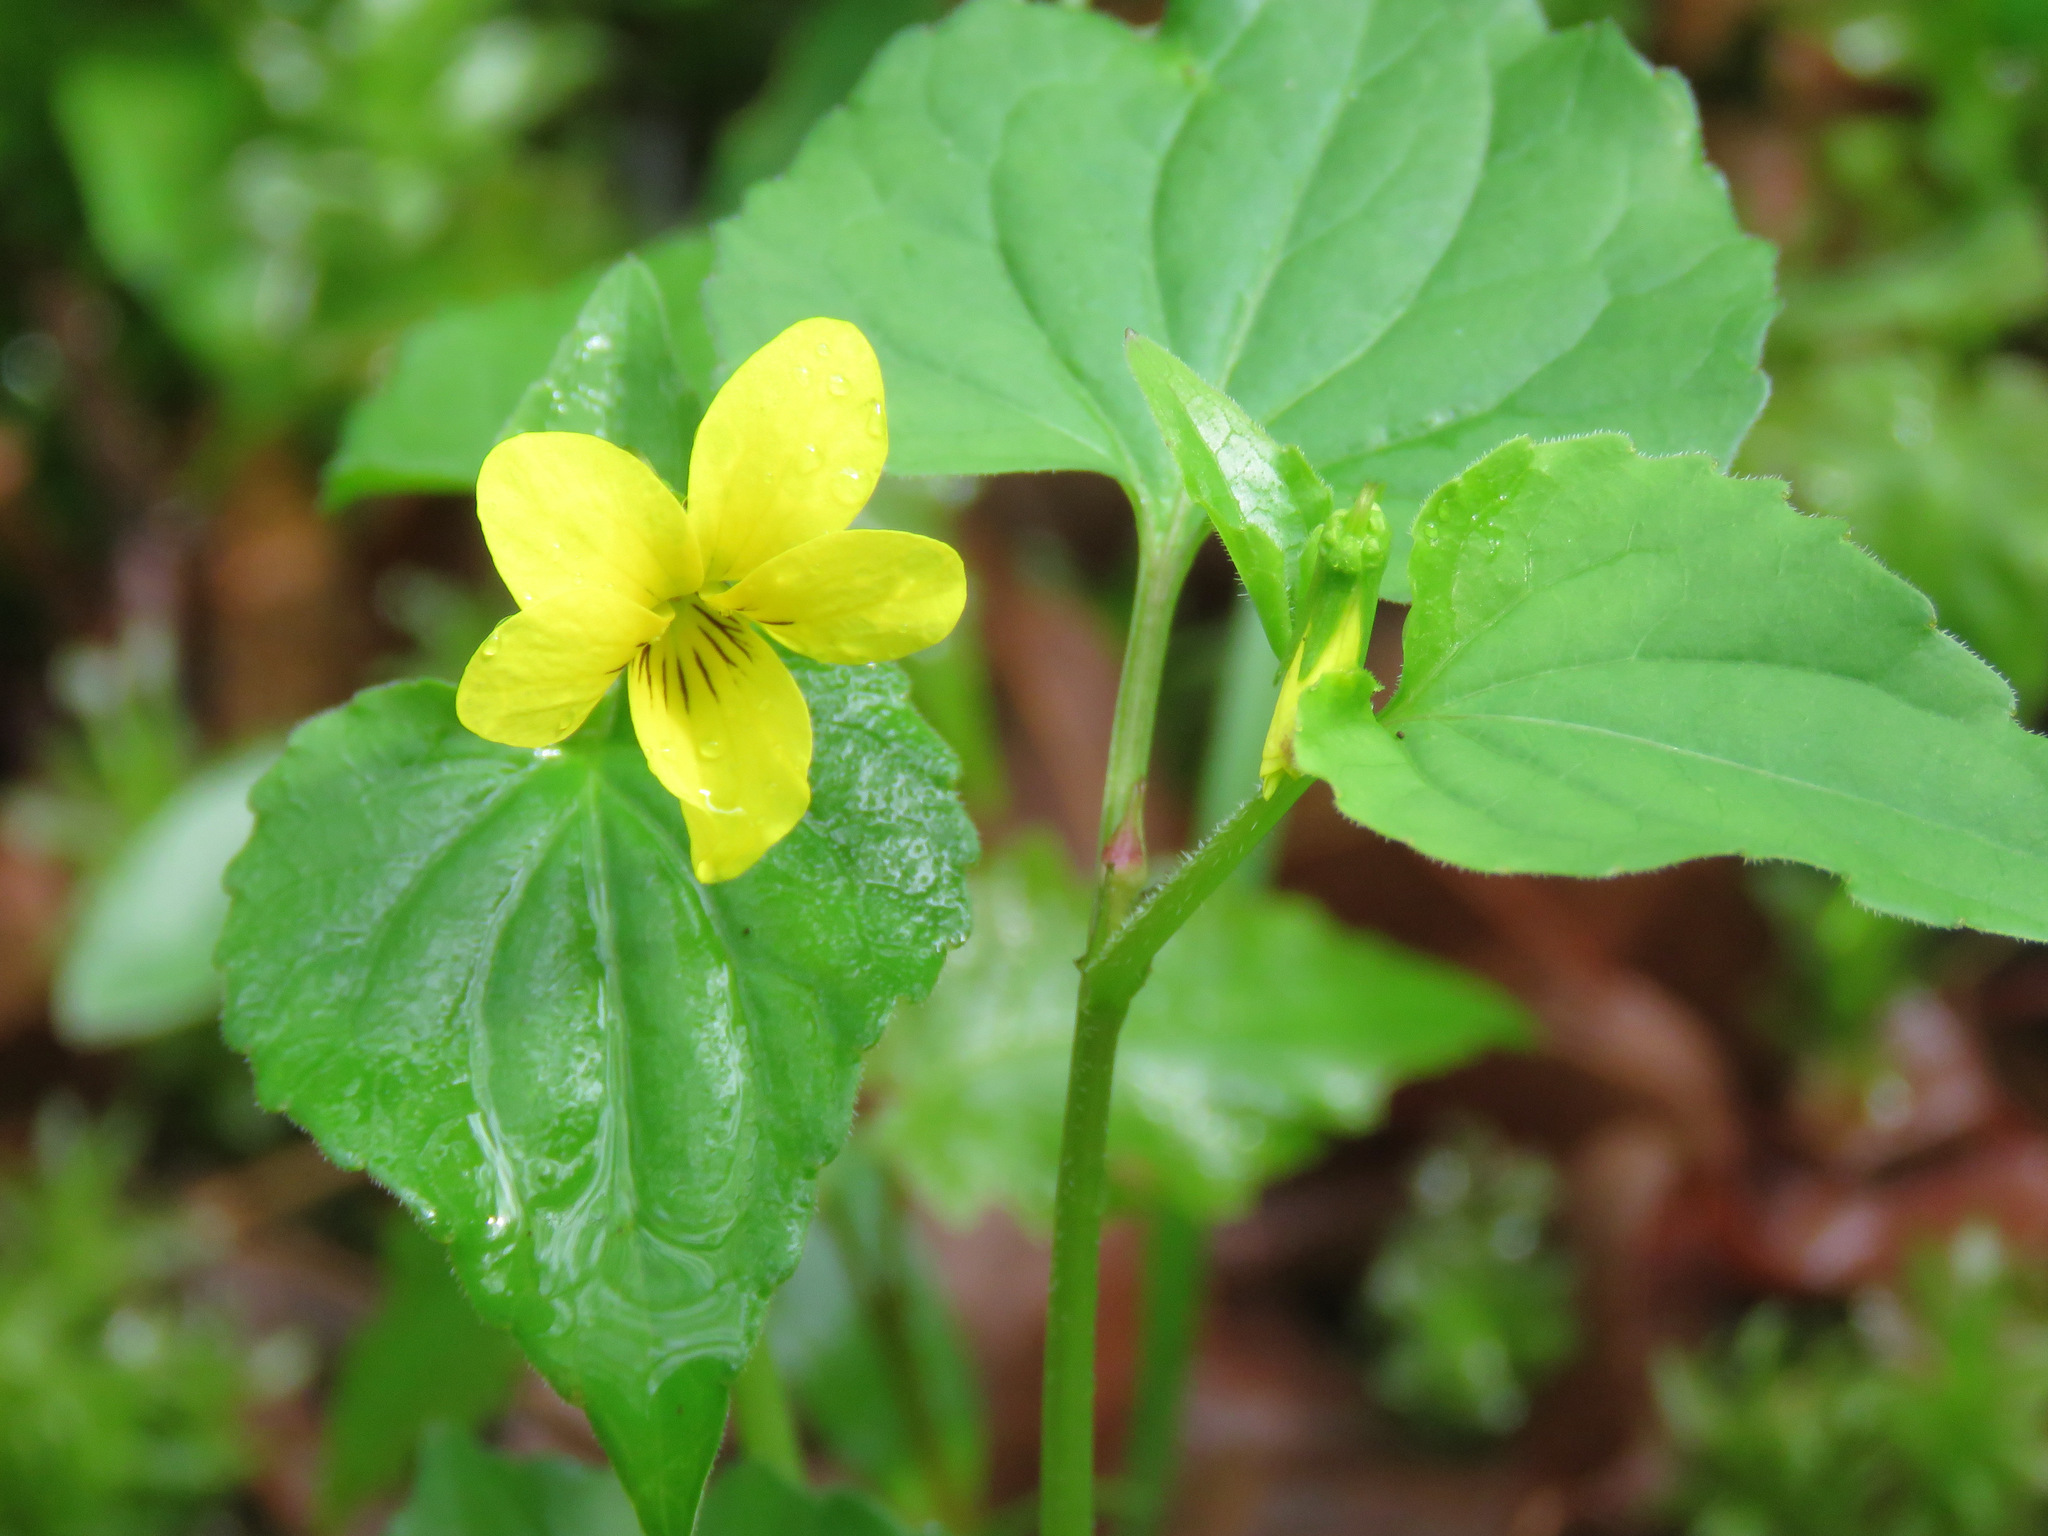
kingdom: Plantae
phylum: Tracheophyta
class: Magnoliopsida
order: Malpighiales
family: Violaceae
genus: Viola
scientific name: Viola glabella
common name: Stream violet
